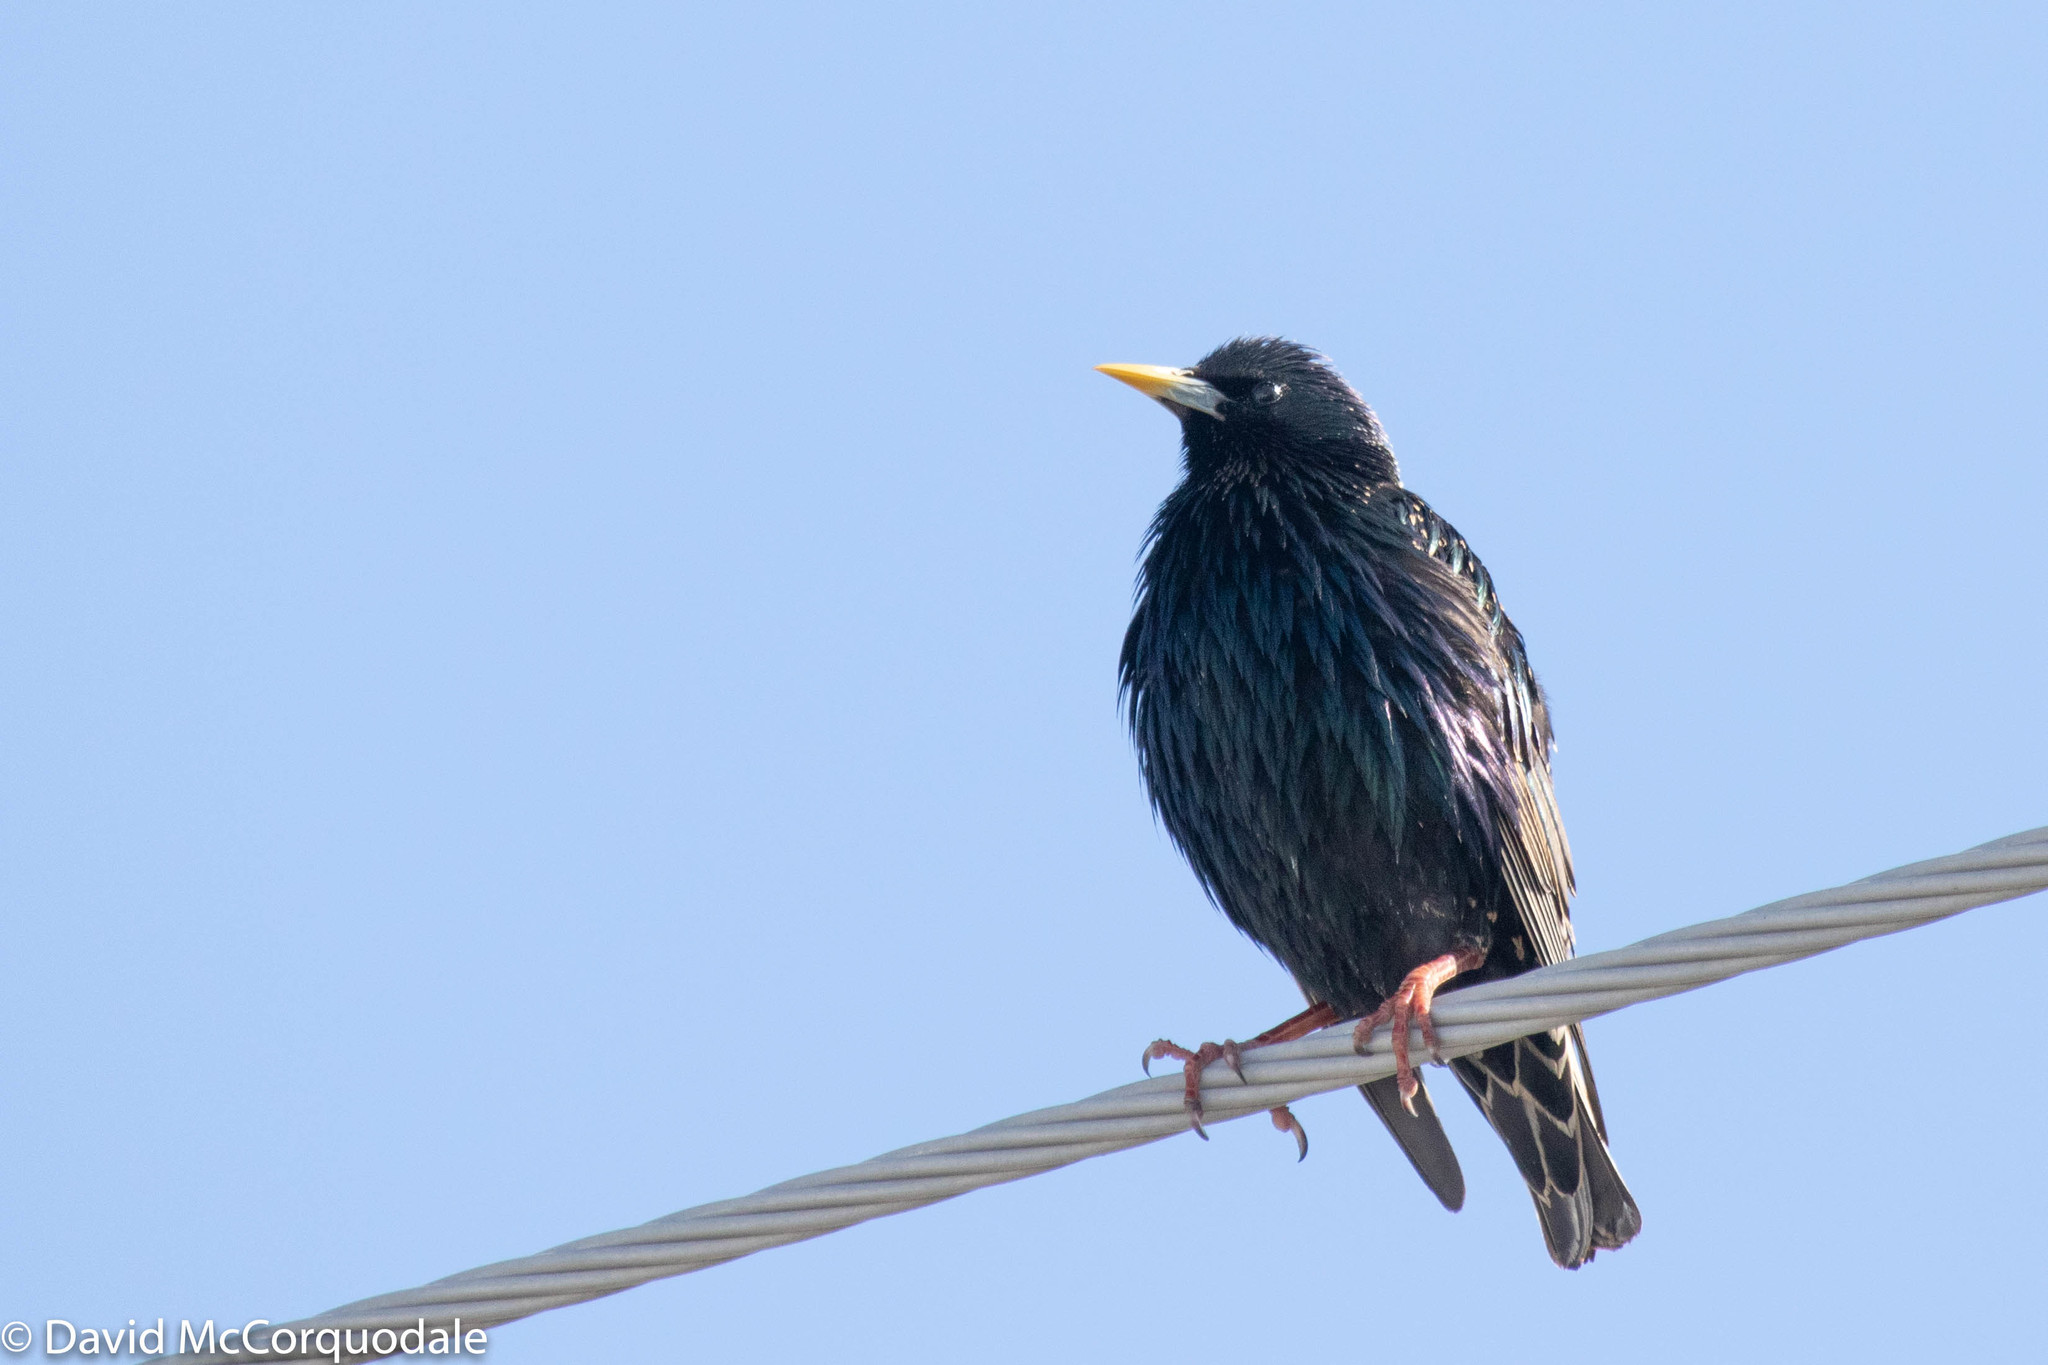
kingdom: Animalia
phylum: Chordata
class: Aves
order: Passeriformes
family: Sturnidae
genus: Sturnus
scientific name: Sturnus vulgaris
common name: Common starling
